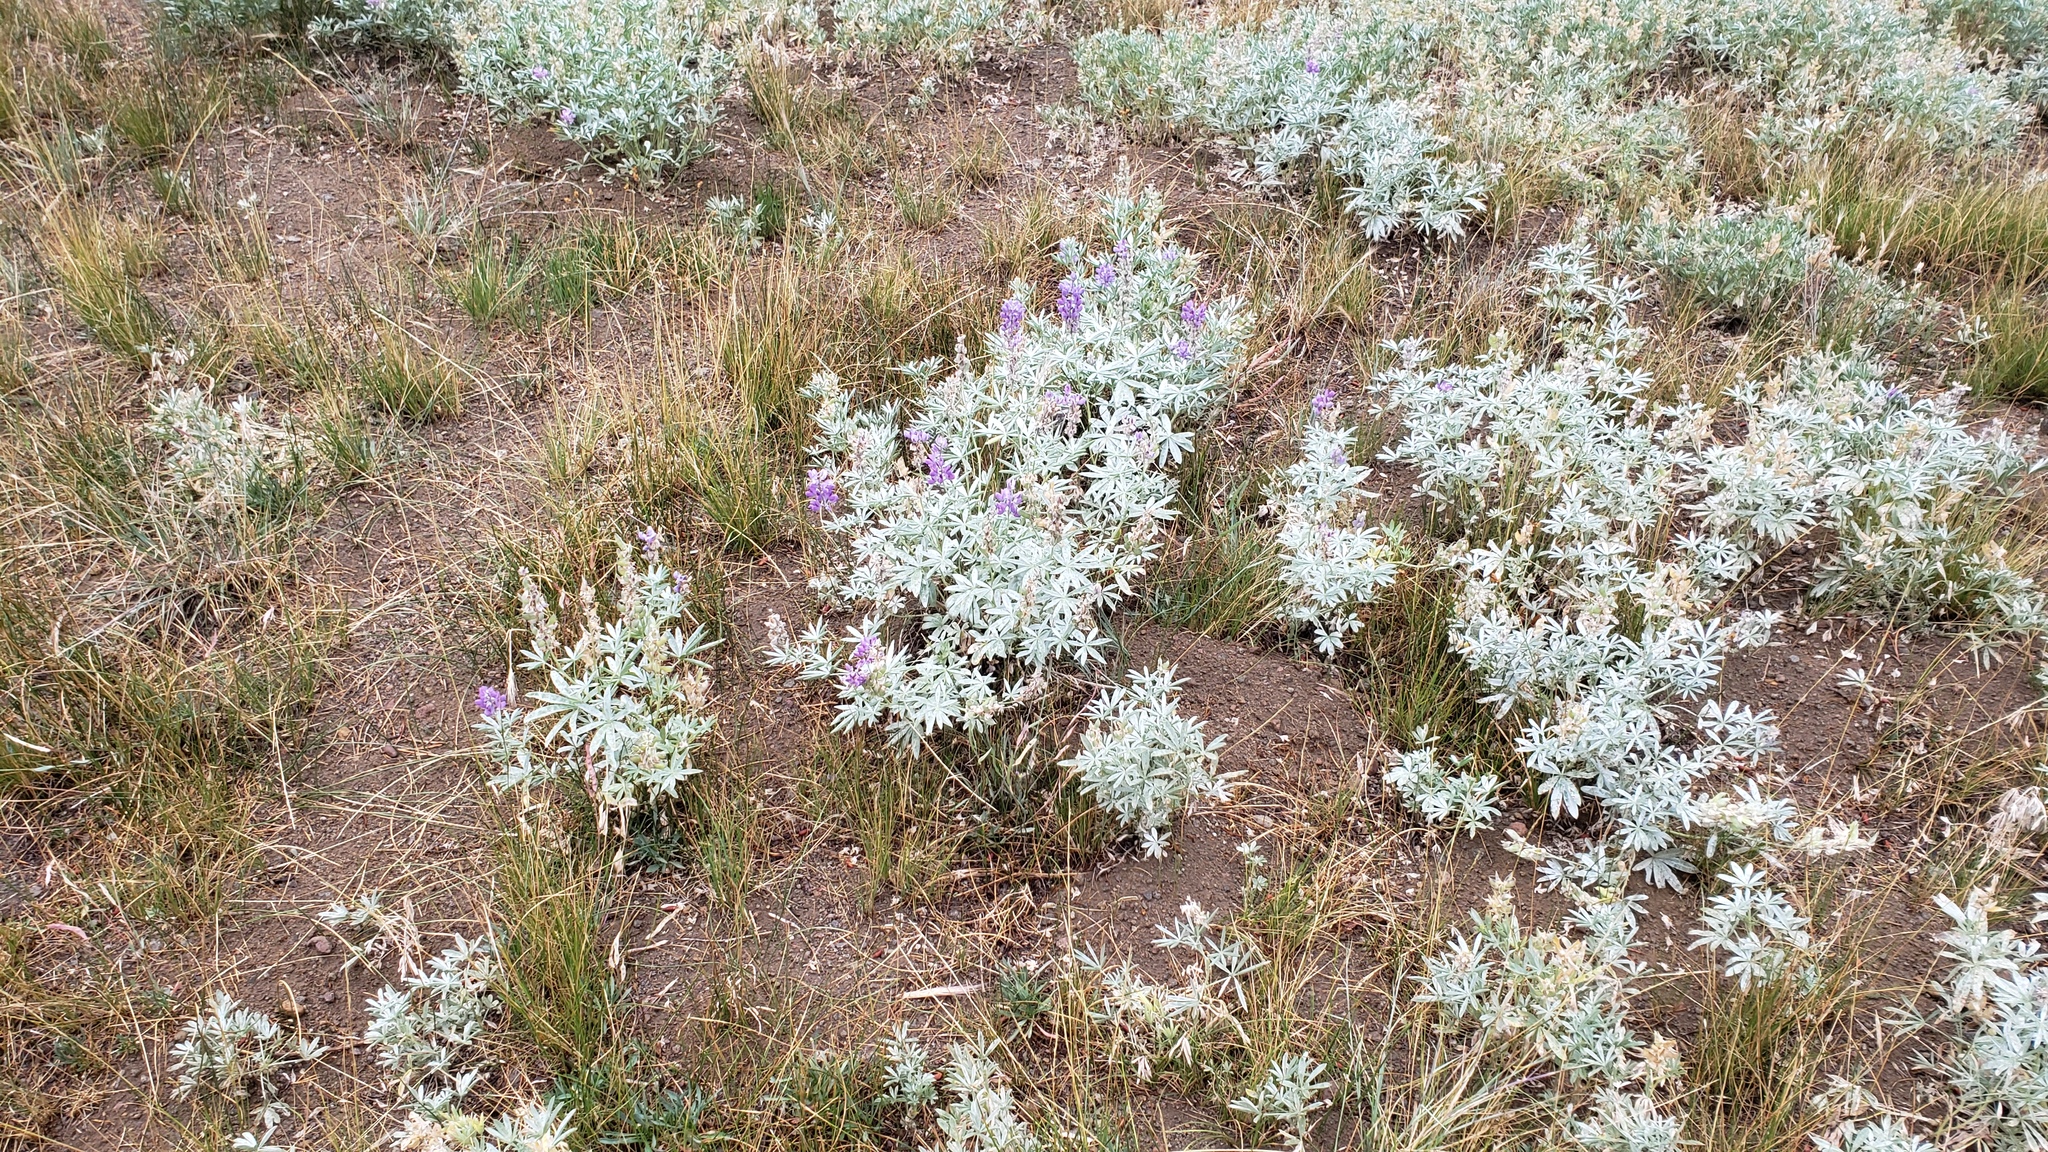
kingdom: Plantae
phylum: Tracheophyta
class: Magnoliopsida
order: Fabales
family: Fabaceae
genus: Lupinus
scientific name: Lupinus obtusilobus
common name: Blunt-lobe lupine
